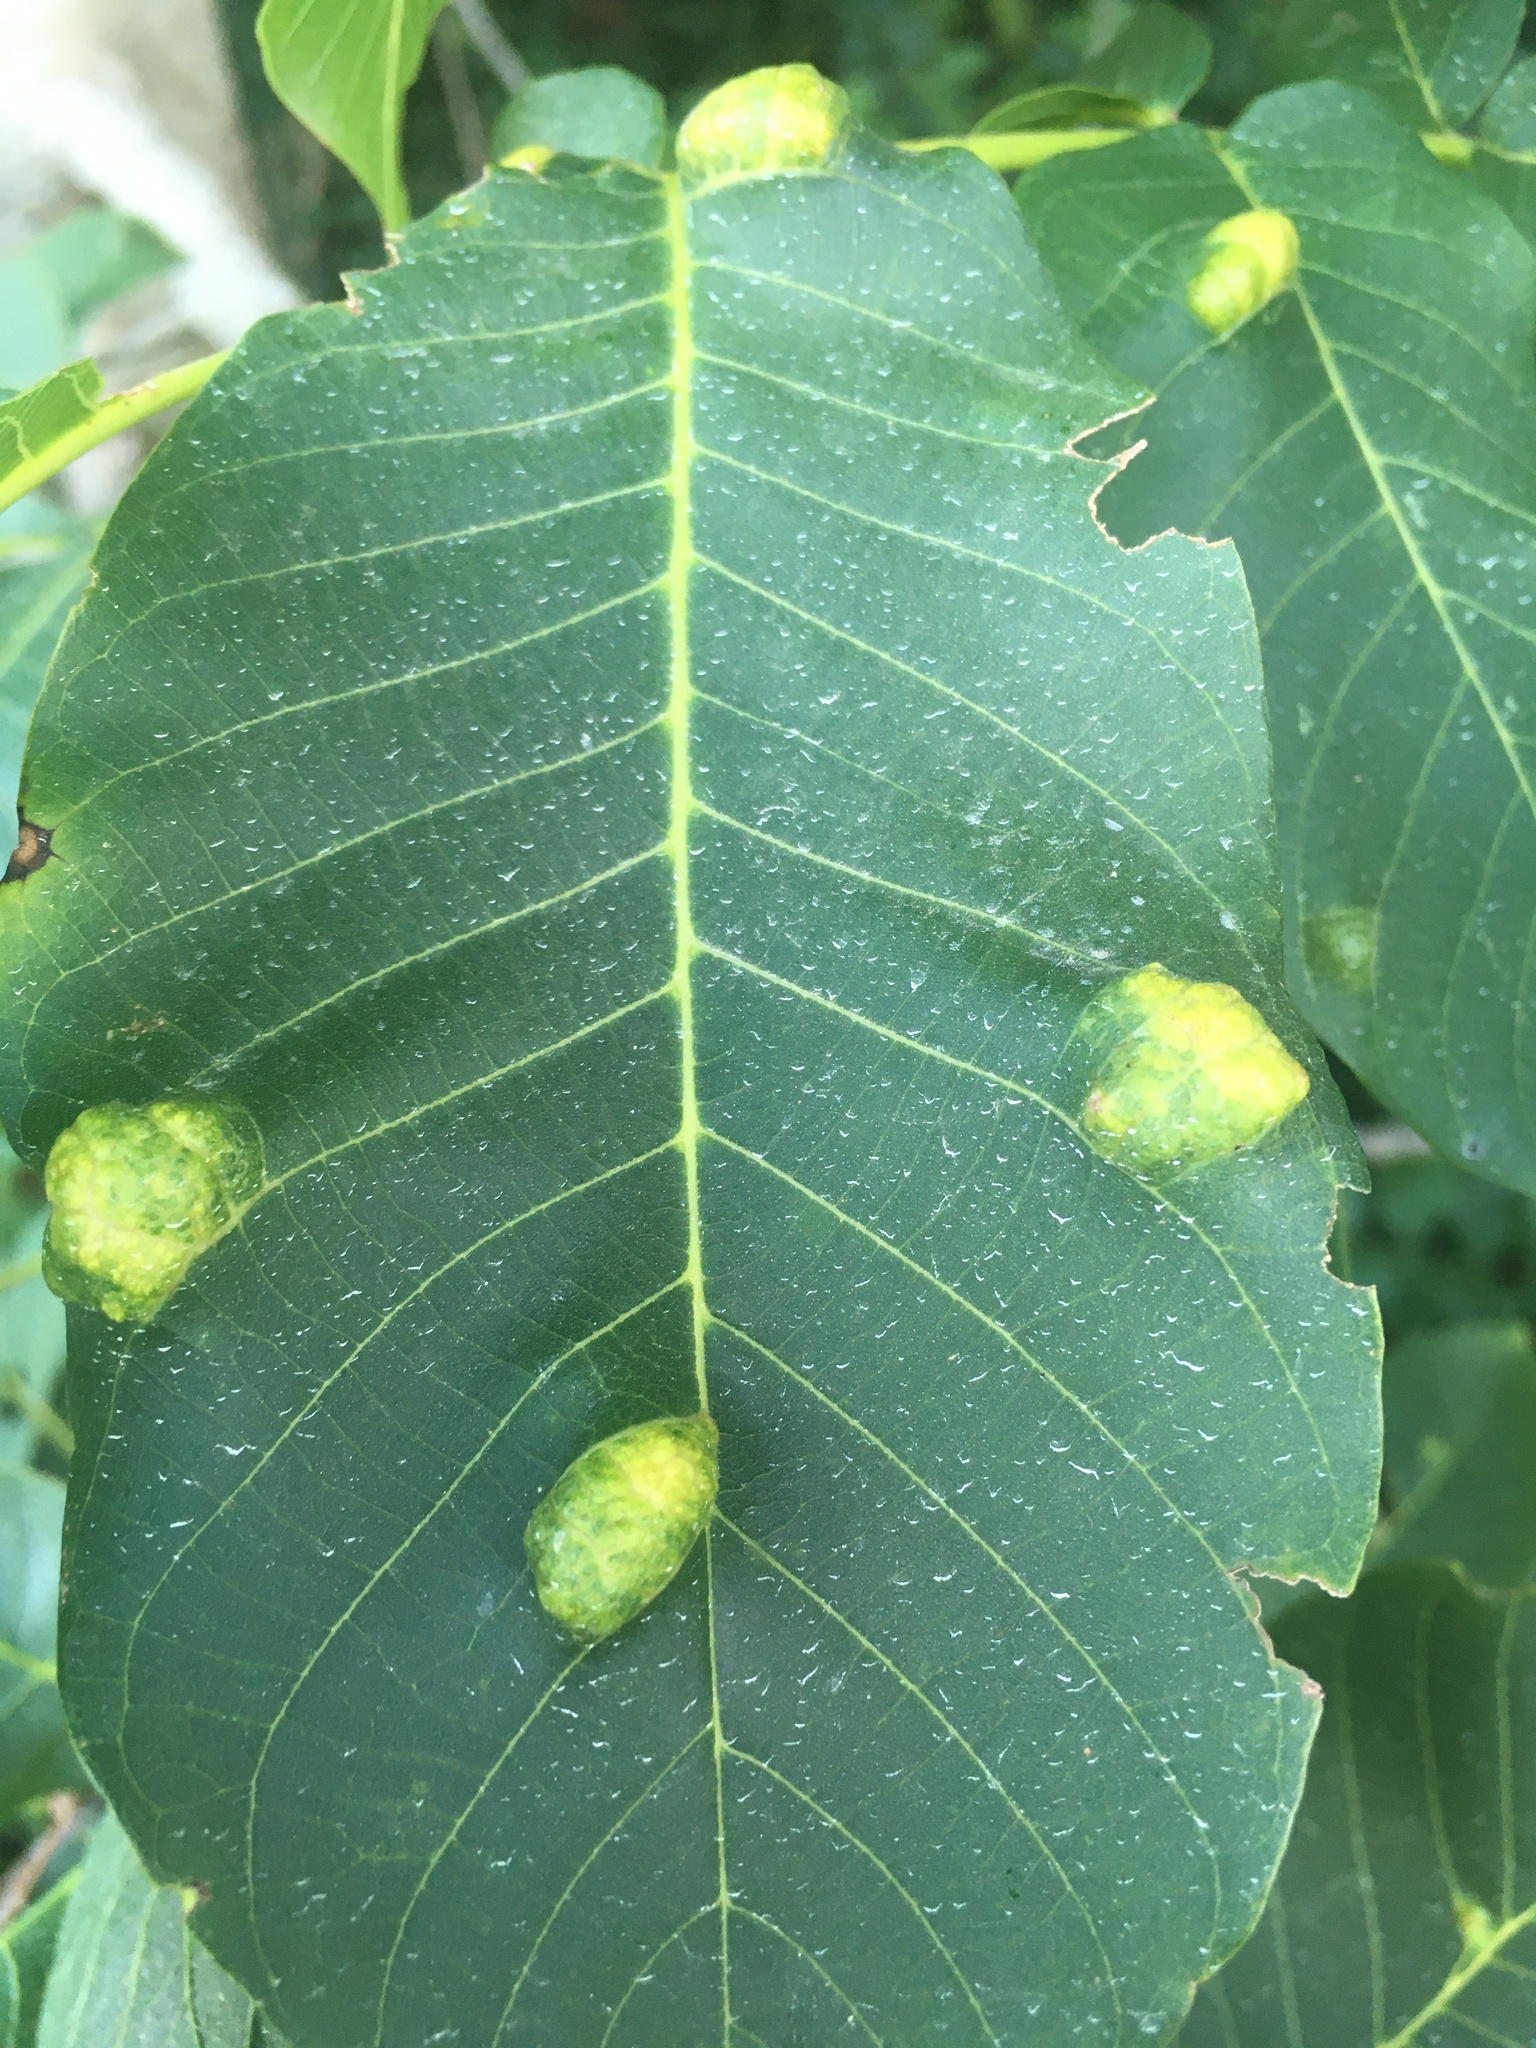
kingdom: Animalia
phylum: Arthropoda
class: Arachnida
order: Trombidiformes
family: Eriophyidae
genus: Aceria
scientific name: Aceria erinea
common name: Persian walnut erineum mite
